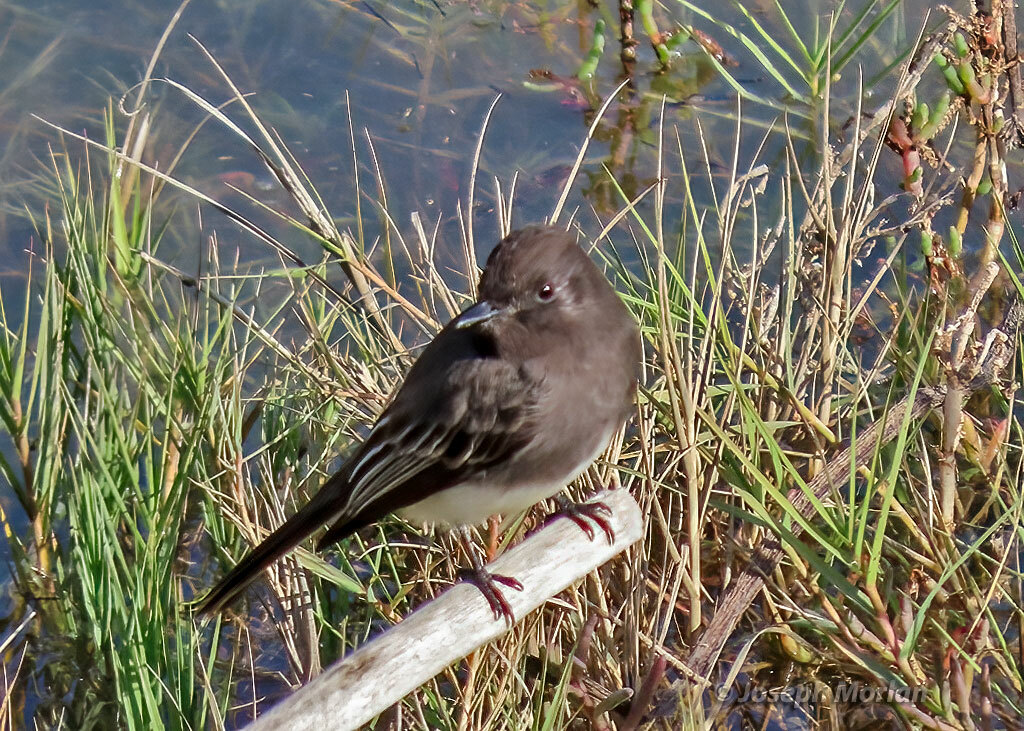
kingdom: Animalia
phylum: Chordata
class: Aves
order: Passeriformes
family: Tyrannidae
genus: Sayornis
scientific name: Sayornis nigricans
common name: Black phoebe
